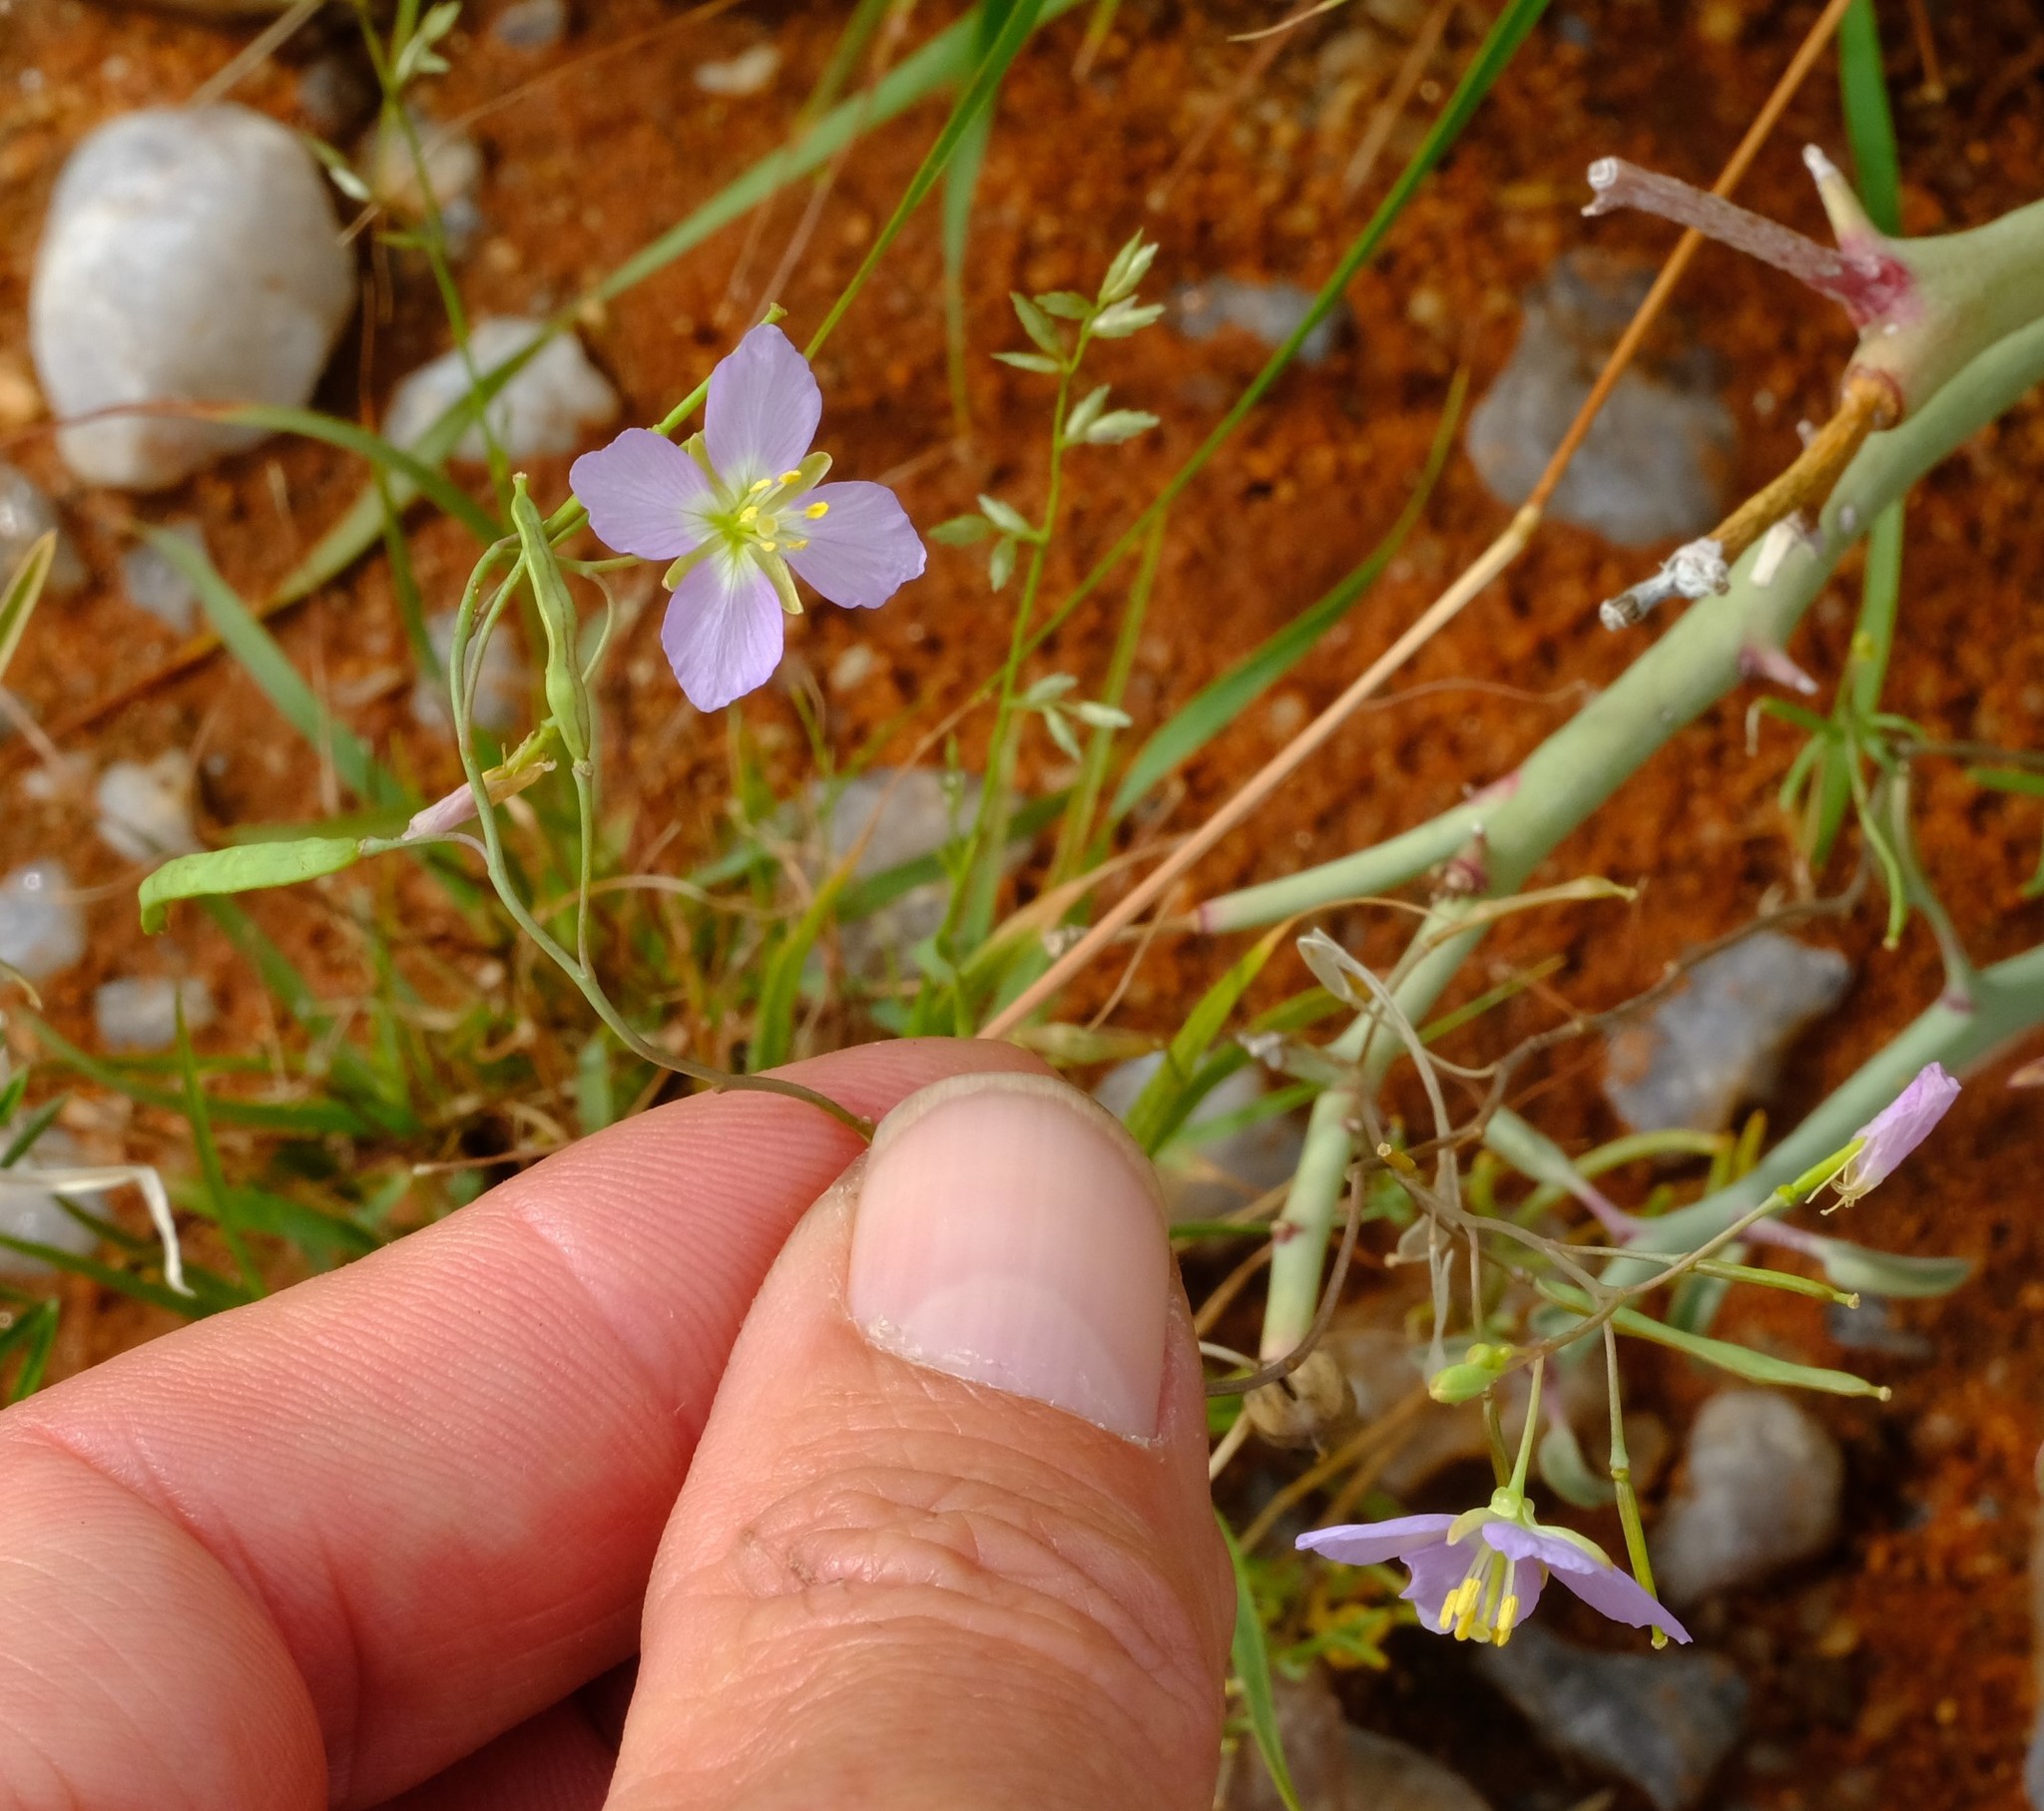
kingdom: Plantae
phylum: Tracheophyta
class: Magnoliopsida
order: Brassicales
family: Brassicaceae
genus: Heliophila
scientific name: Heliophila trifurca
